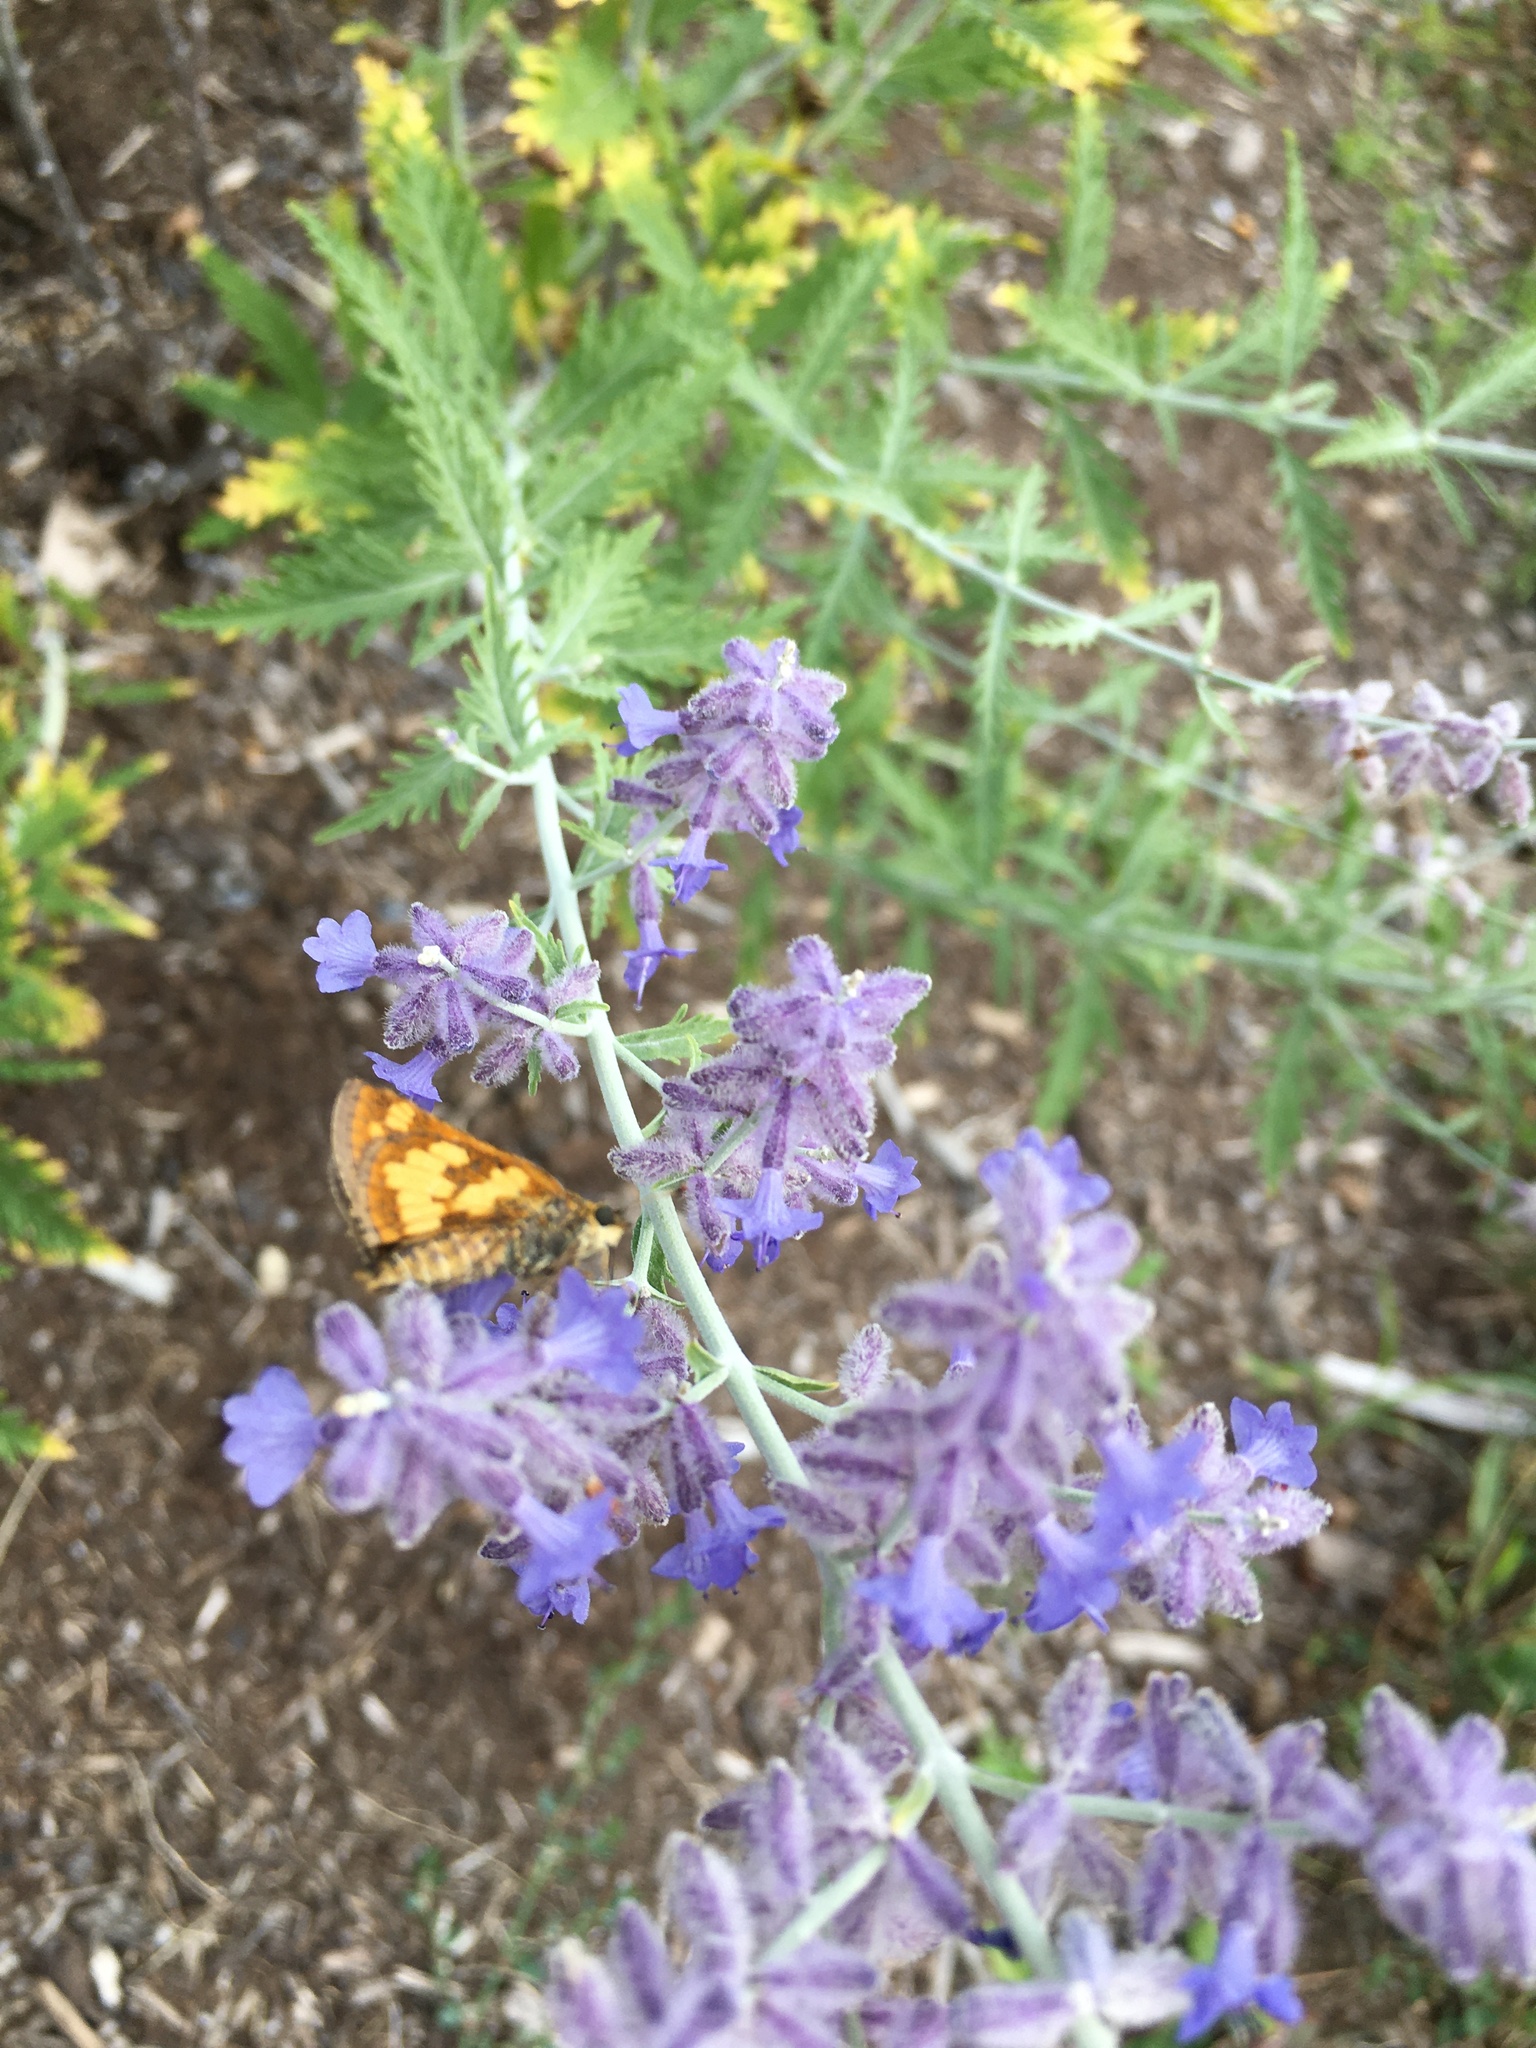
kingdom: Animalia
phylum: Arthropoda
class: Insecta
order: Lepidoptera
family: Hesperiidae
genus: Polites
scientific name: Polites coras
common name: Peck's skipper
